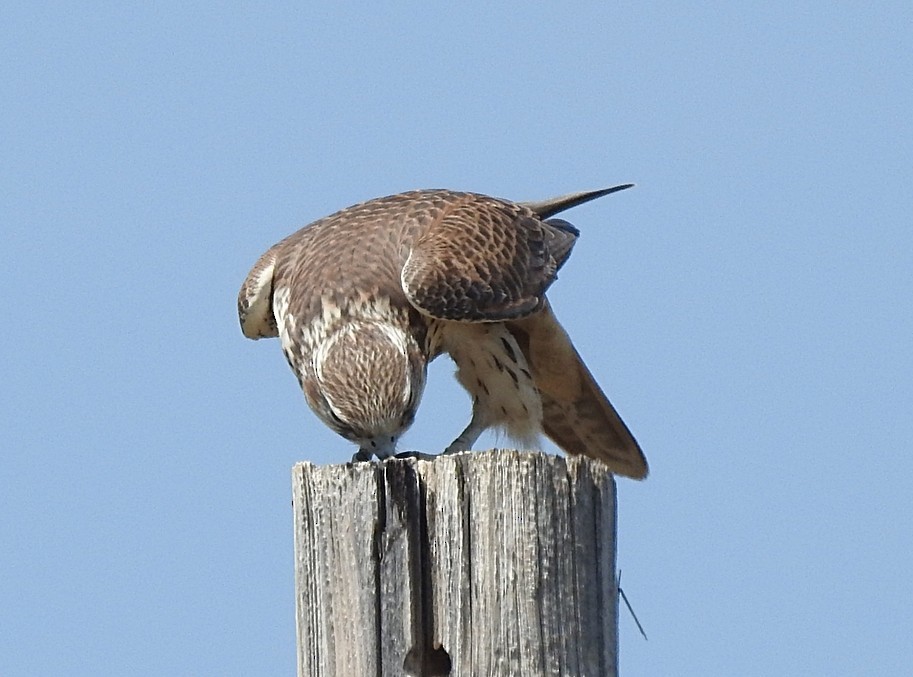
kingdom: Animalia
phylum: Chordata
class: Aves
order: Falconiformes
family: Falconidae
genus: Falco
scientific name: Falco mexicanus
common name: Prairie falcon
